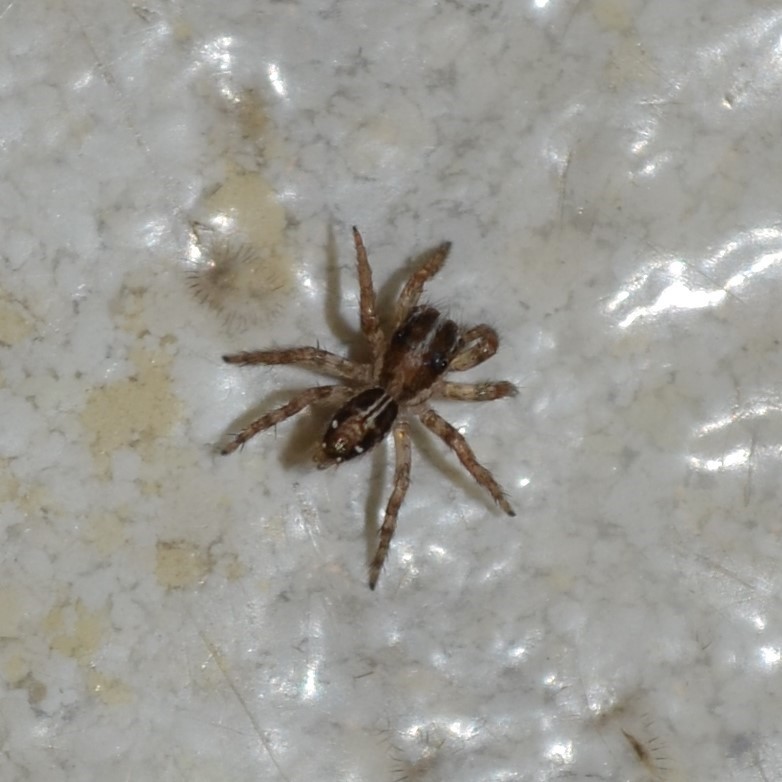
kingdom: Animalia
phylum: Arthropoda
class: Arachnida
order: Araneae
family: Salticidae
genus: Plexippus
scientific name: Plexippus paykulli
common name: Pantropical jumper
